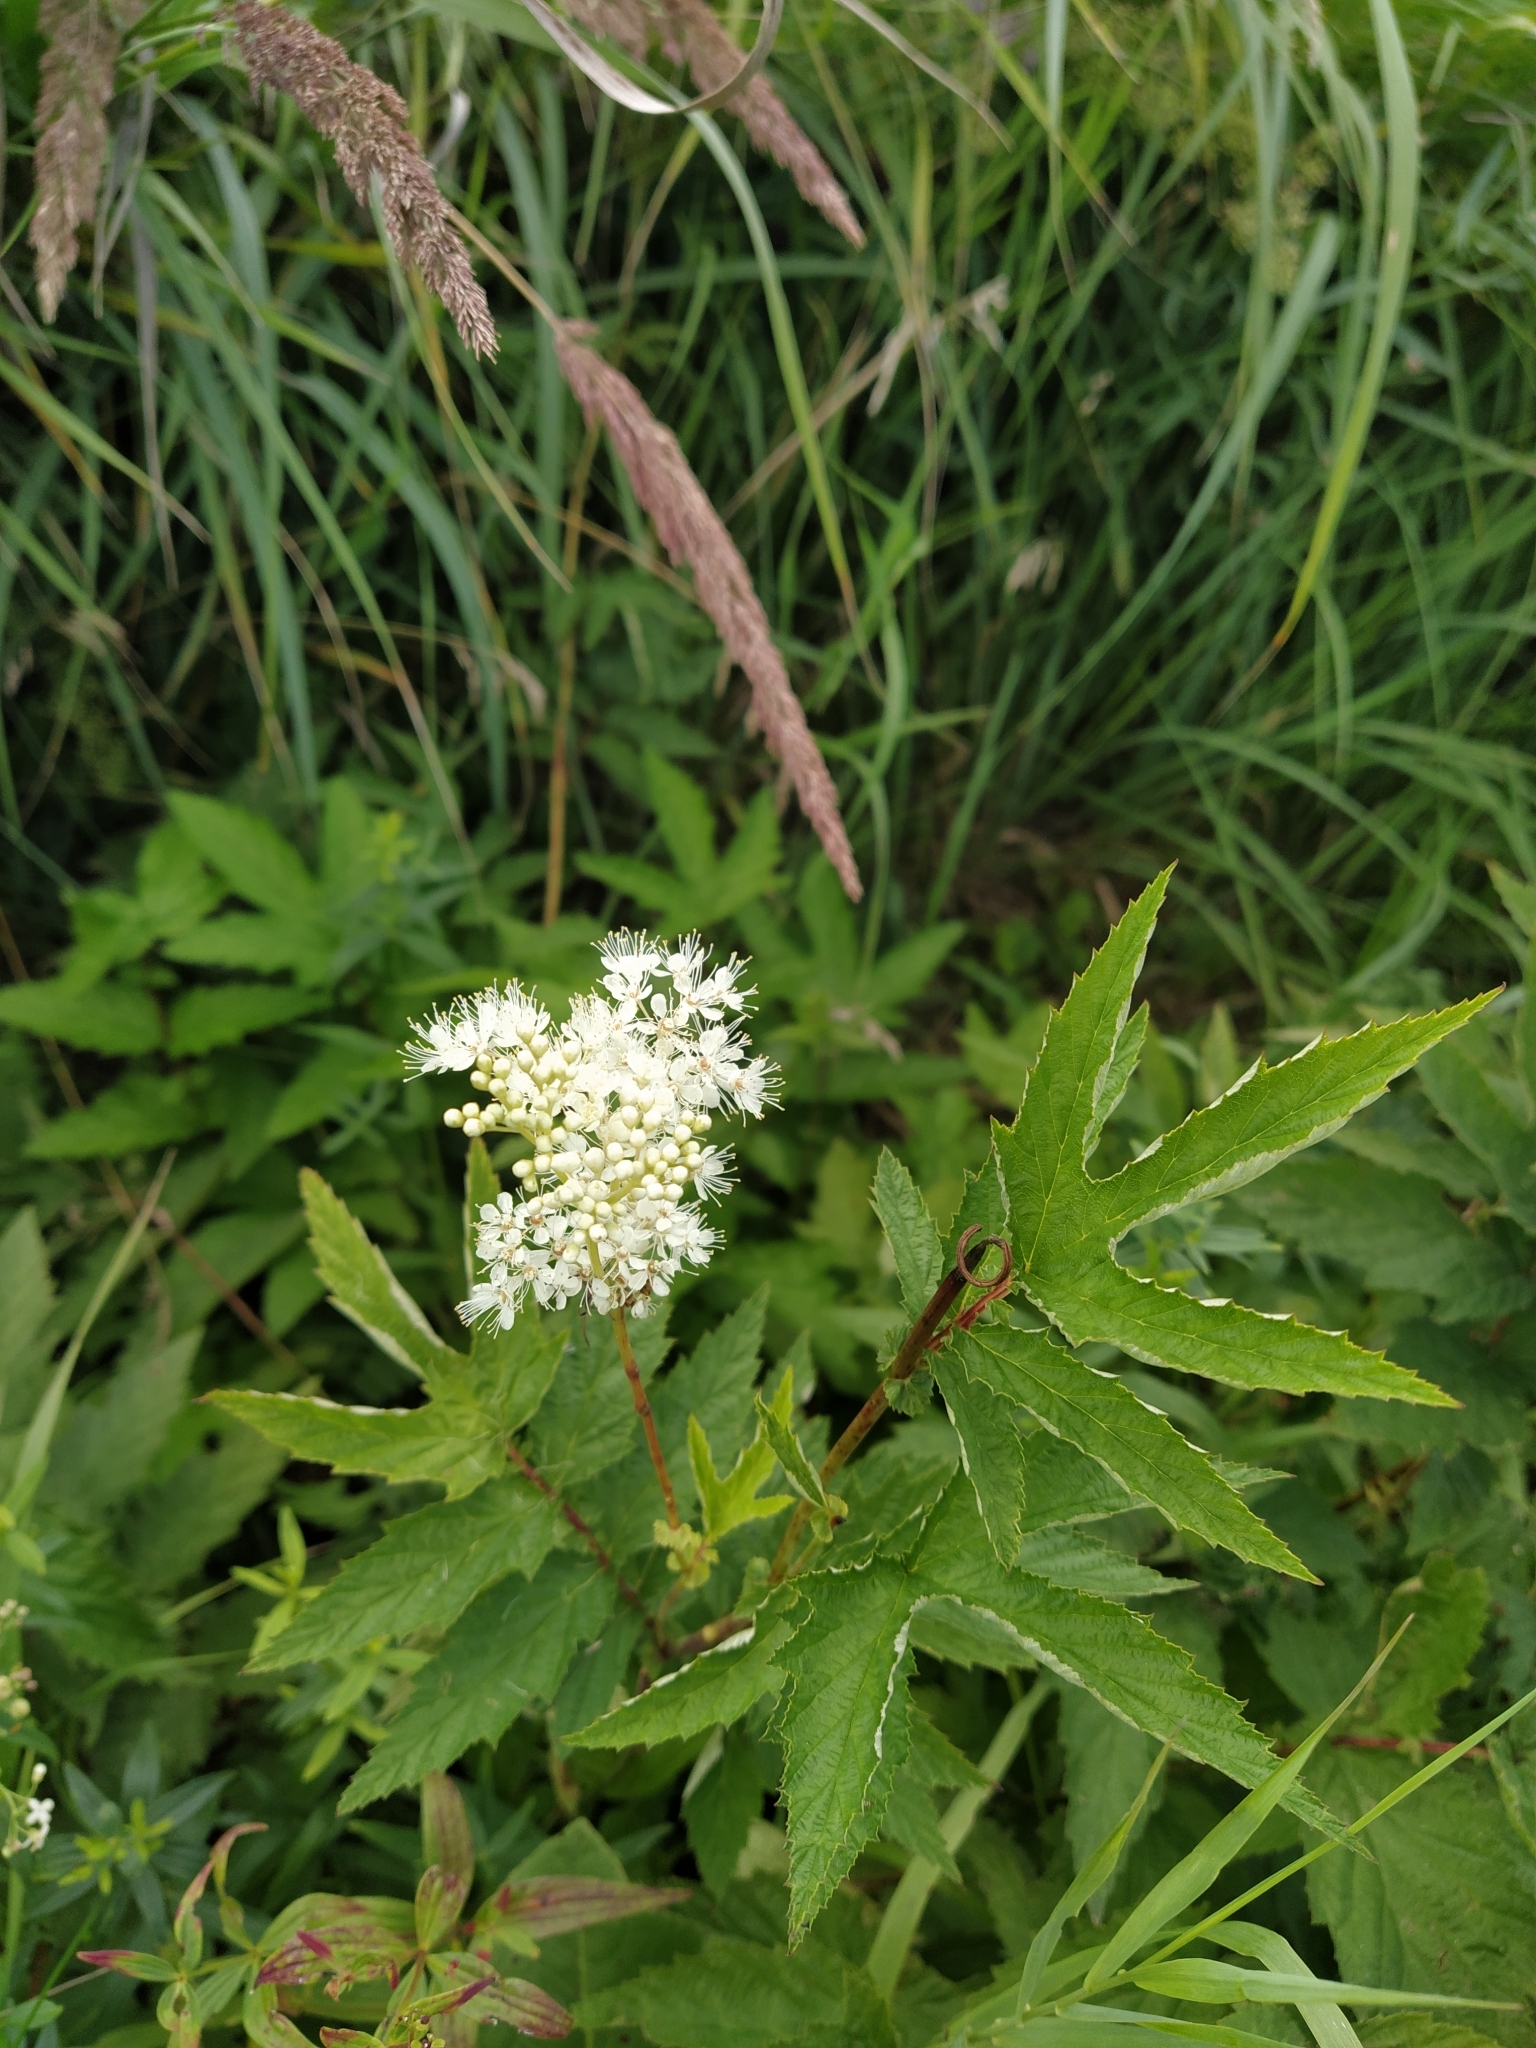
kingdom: Plantae
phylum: Tracheophyta
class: Magnoliopsida
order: Rosales
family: Rosaceae
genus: Filipendula
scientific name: Filipendula ulmaria
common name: Meadowsweet
